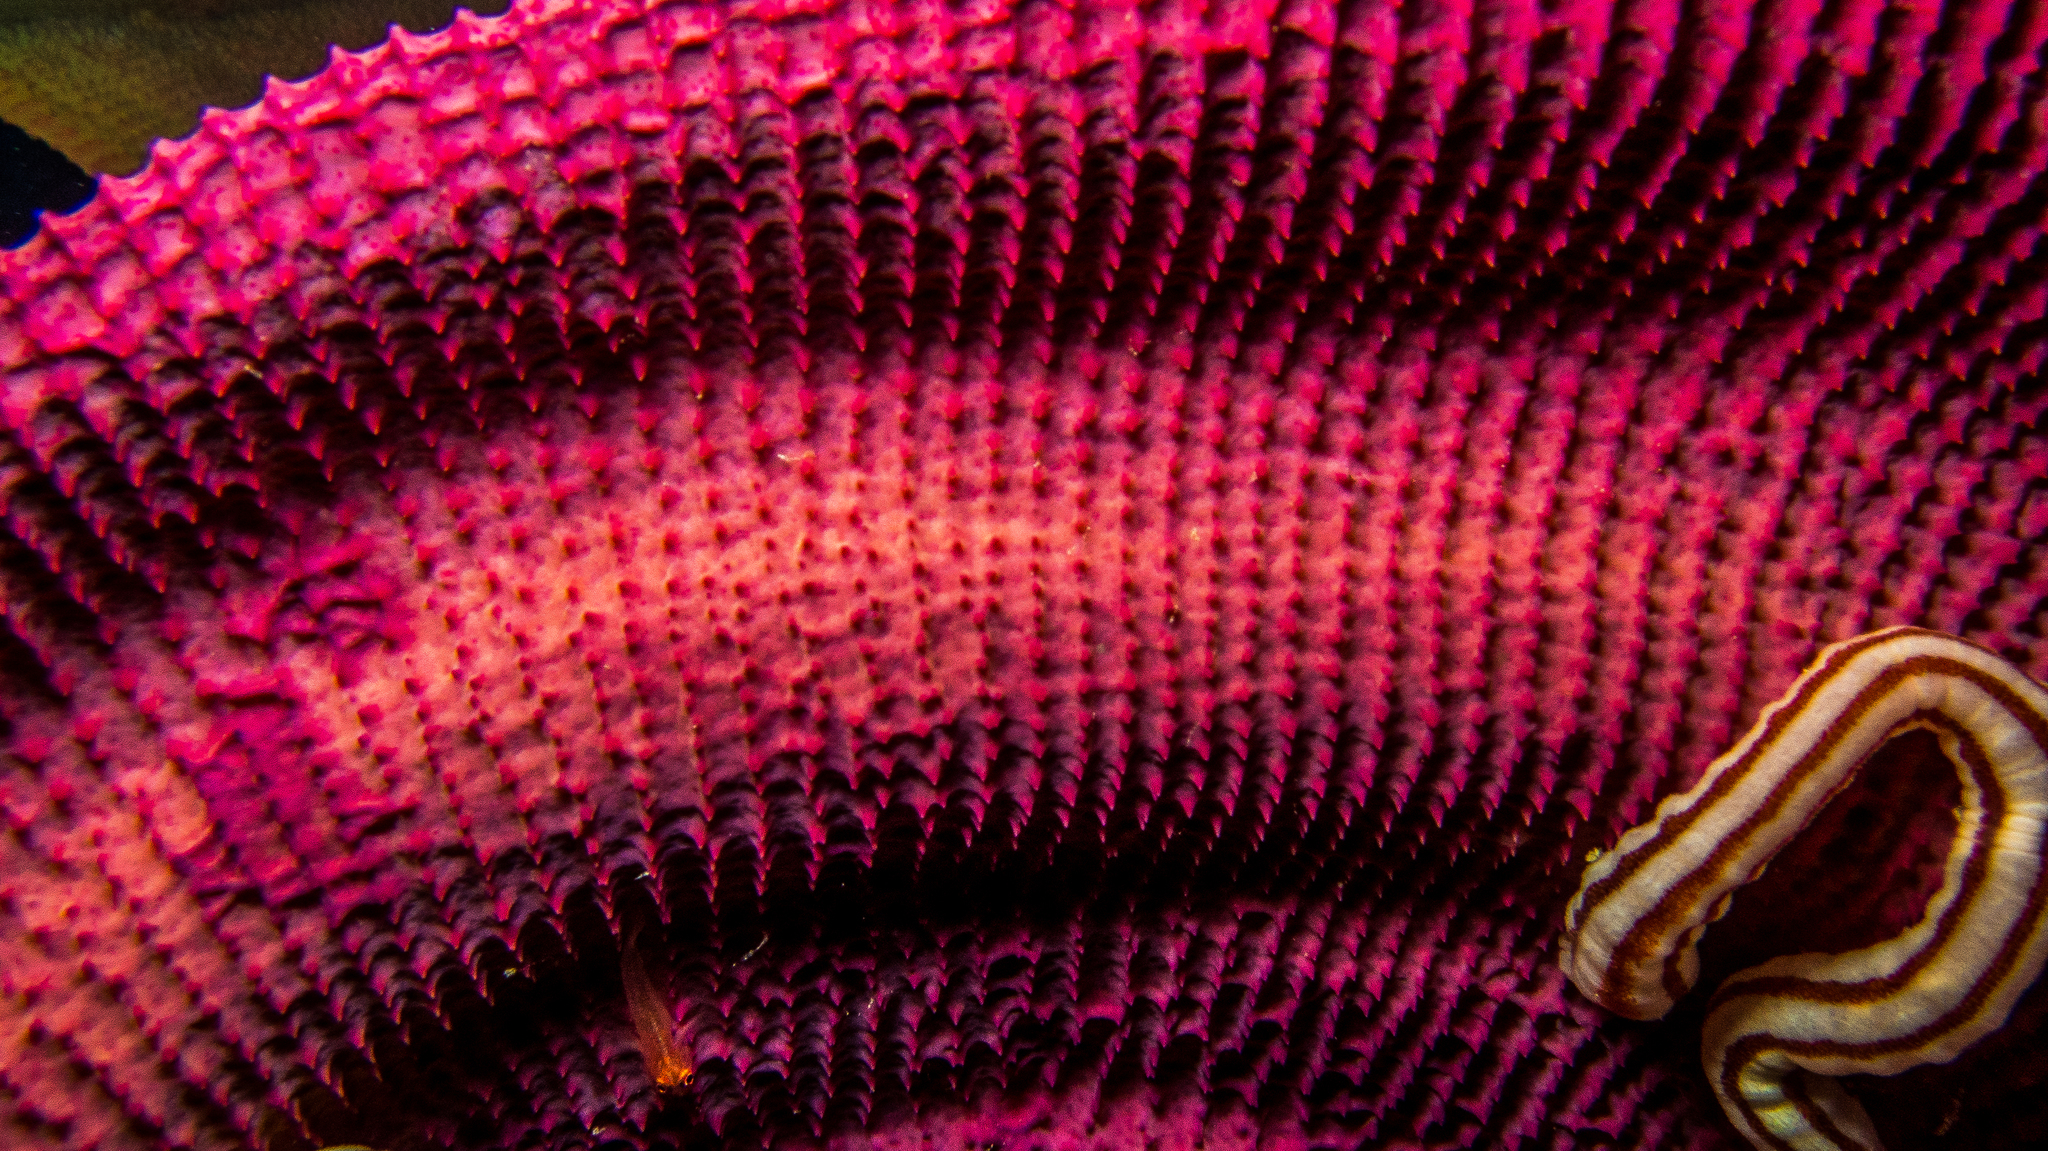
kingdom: Animalia
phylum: Porifera
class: Demospongiae
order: Verongiida
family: Ianthellidae
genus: Ianthella
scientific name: Ianthella basta
